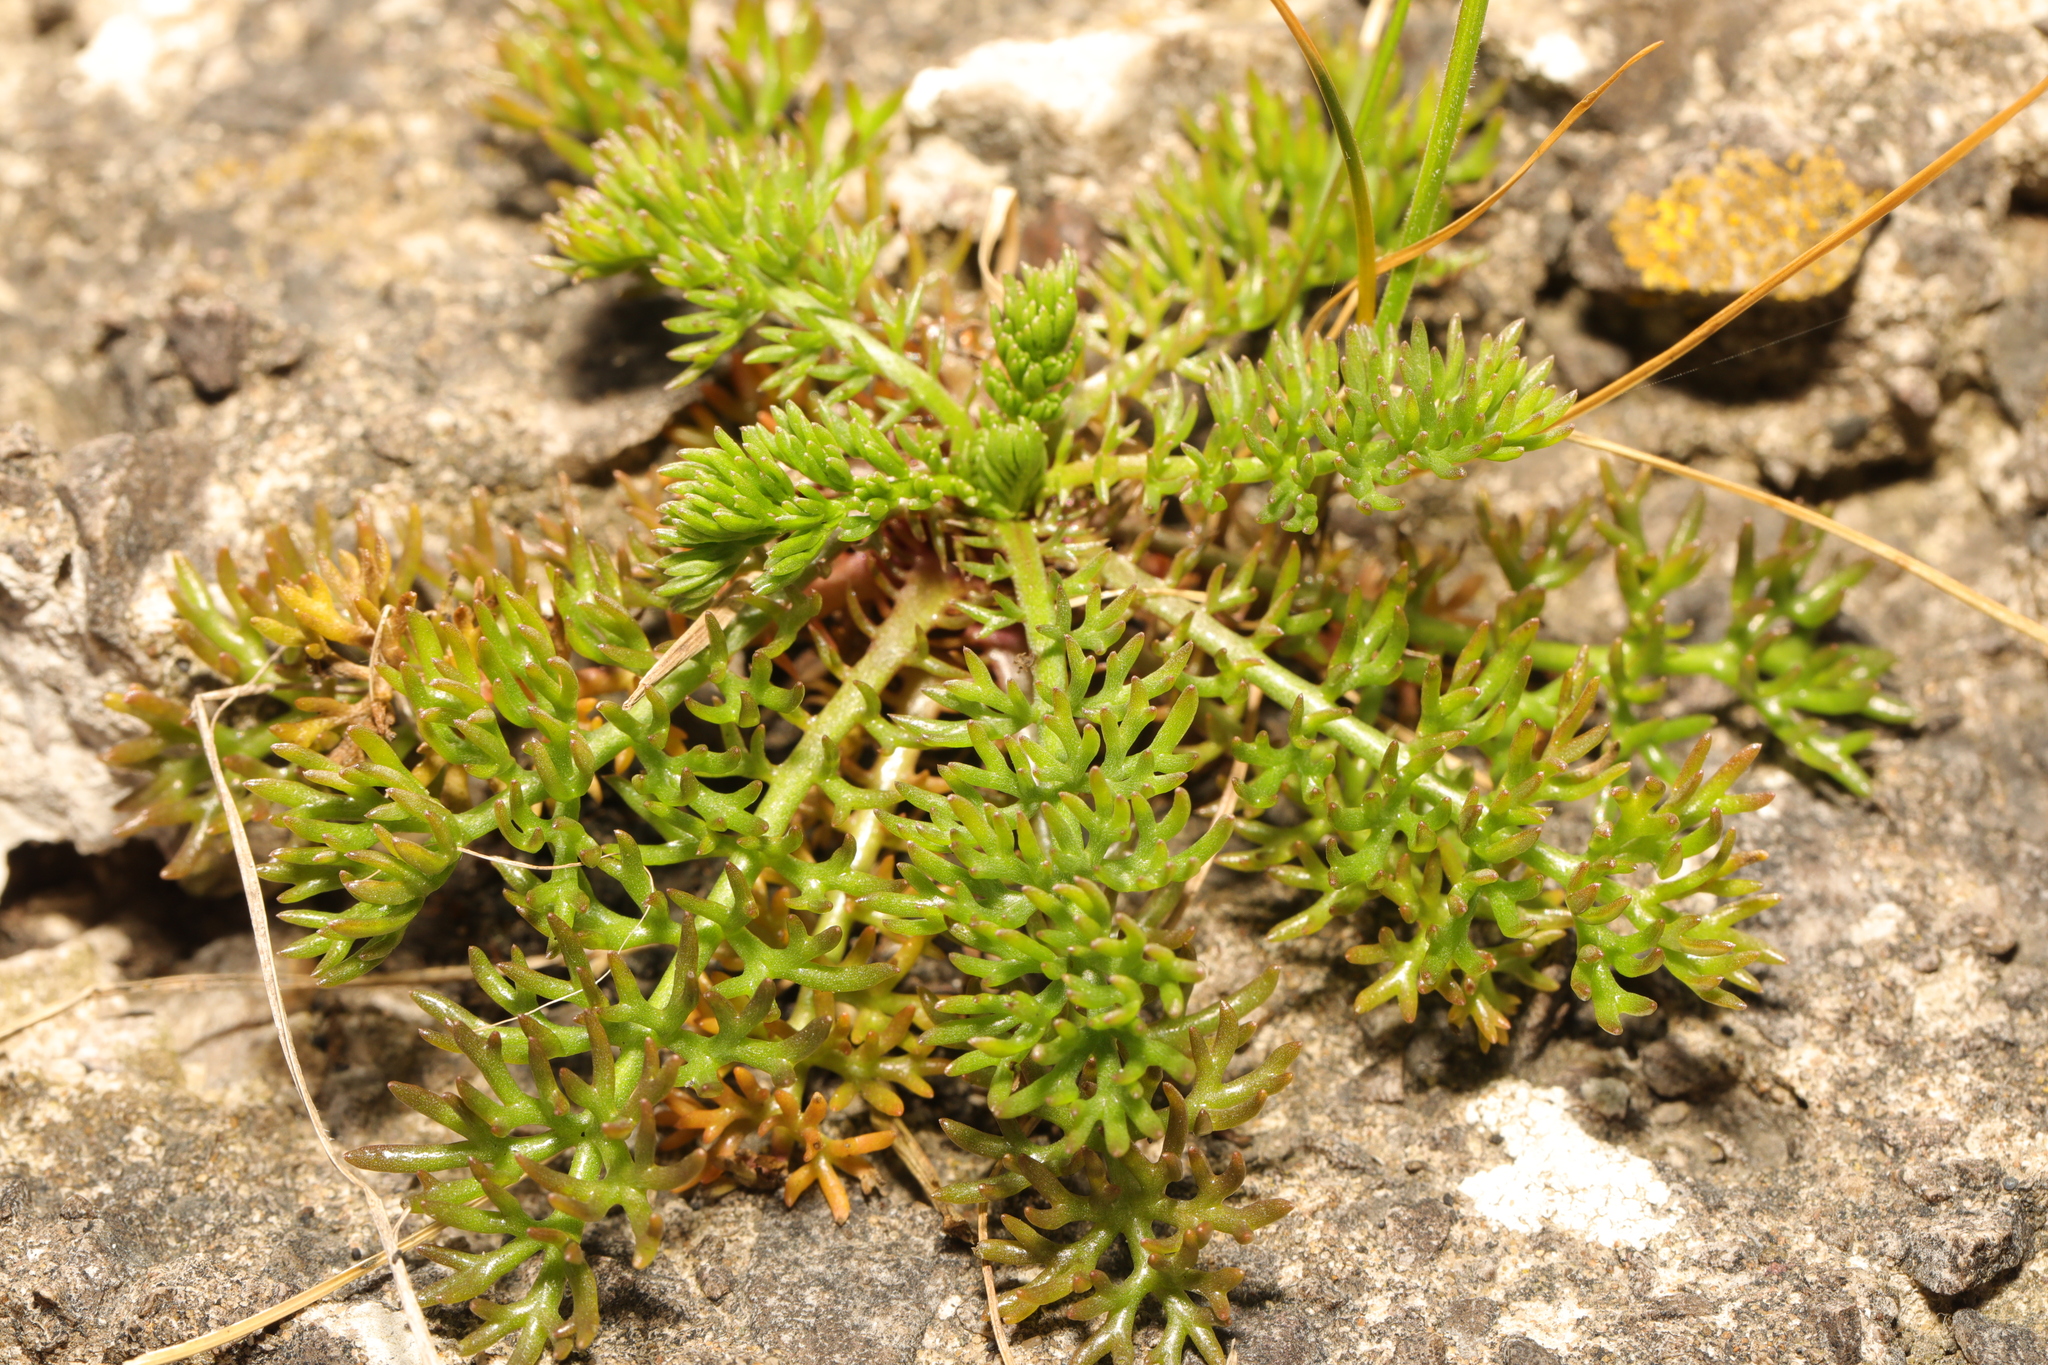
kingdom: Plantae
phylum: Tracheophyta
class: Magnoliopsida
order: Asterales
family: Asteraceae
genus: Tripleurospermum
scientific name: Tripleurospermum maritimum
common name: Sea mayweed
